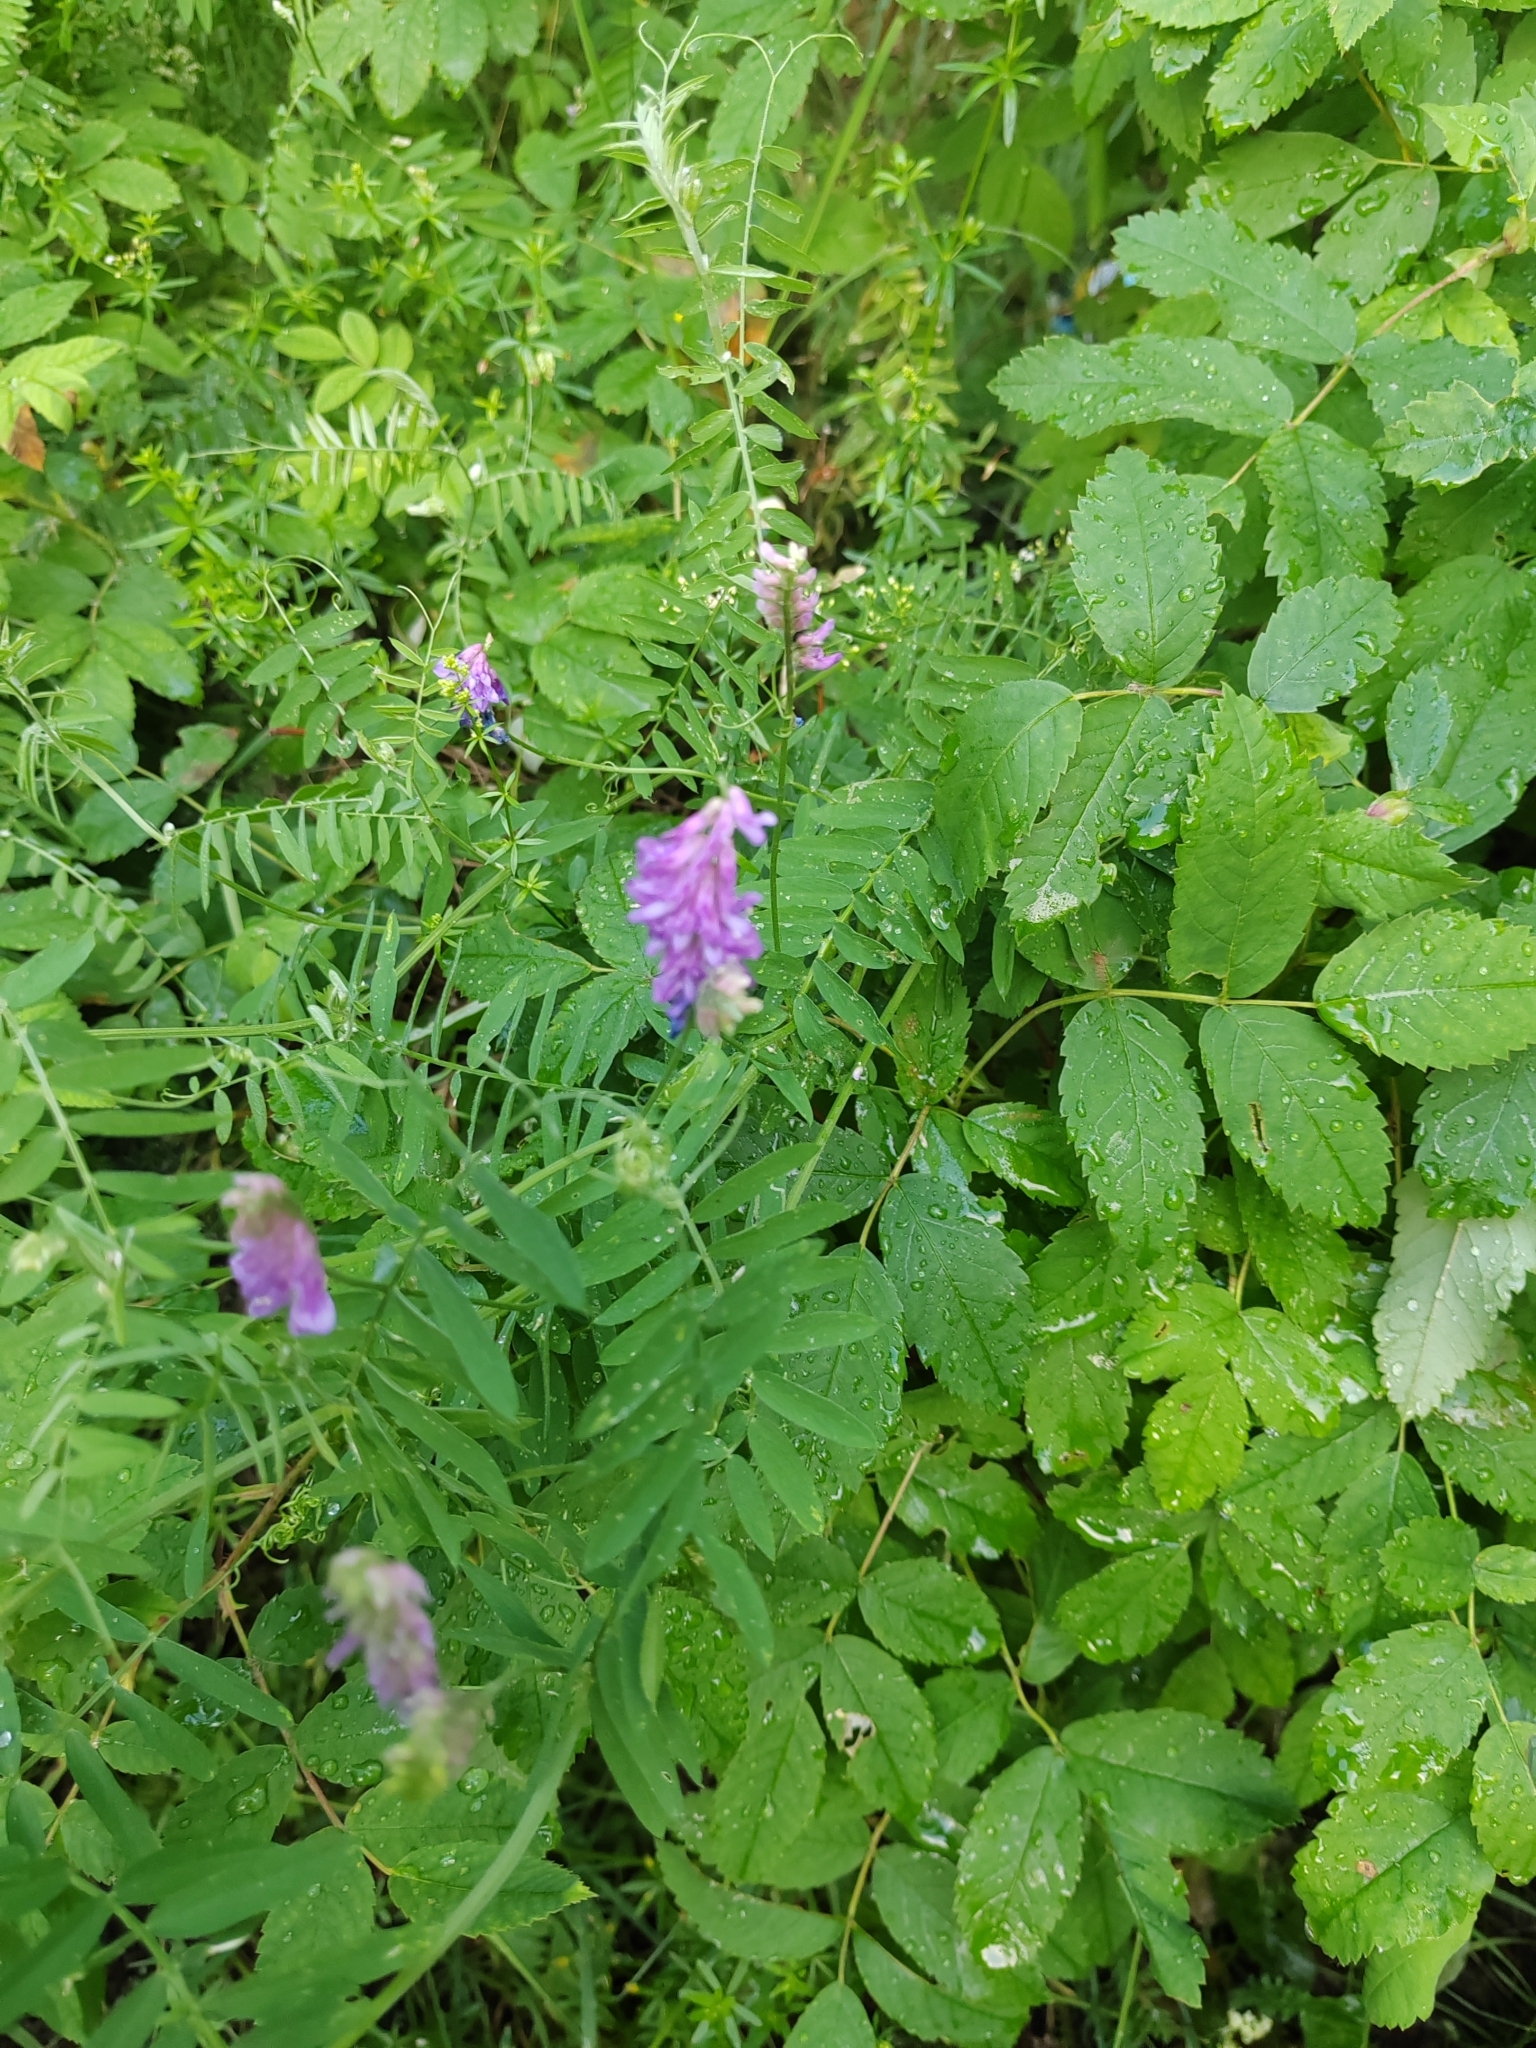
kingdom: Plantae
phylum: Tracheophyta
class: Magnoliopsida
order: Fabales
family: Fabaceae
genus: Vicia
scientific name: Vicia cracca
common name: Bird vetch
